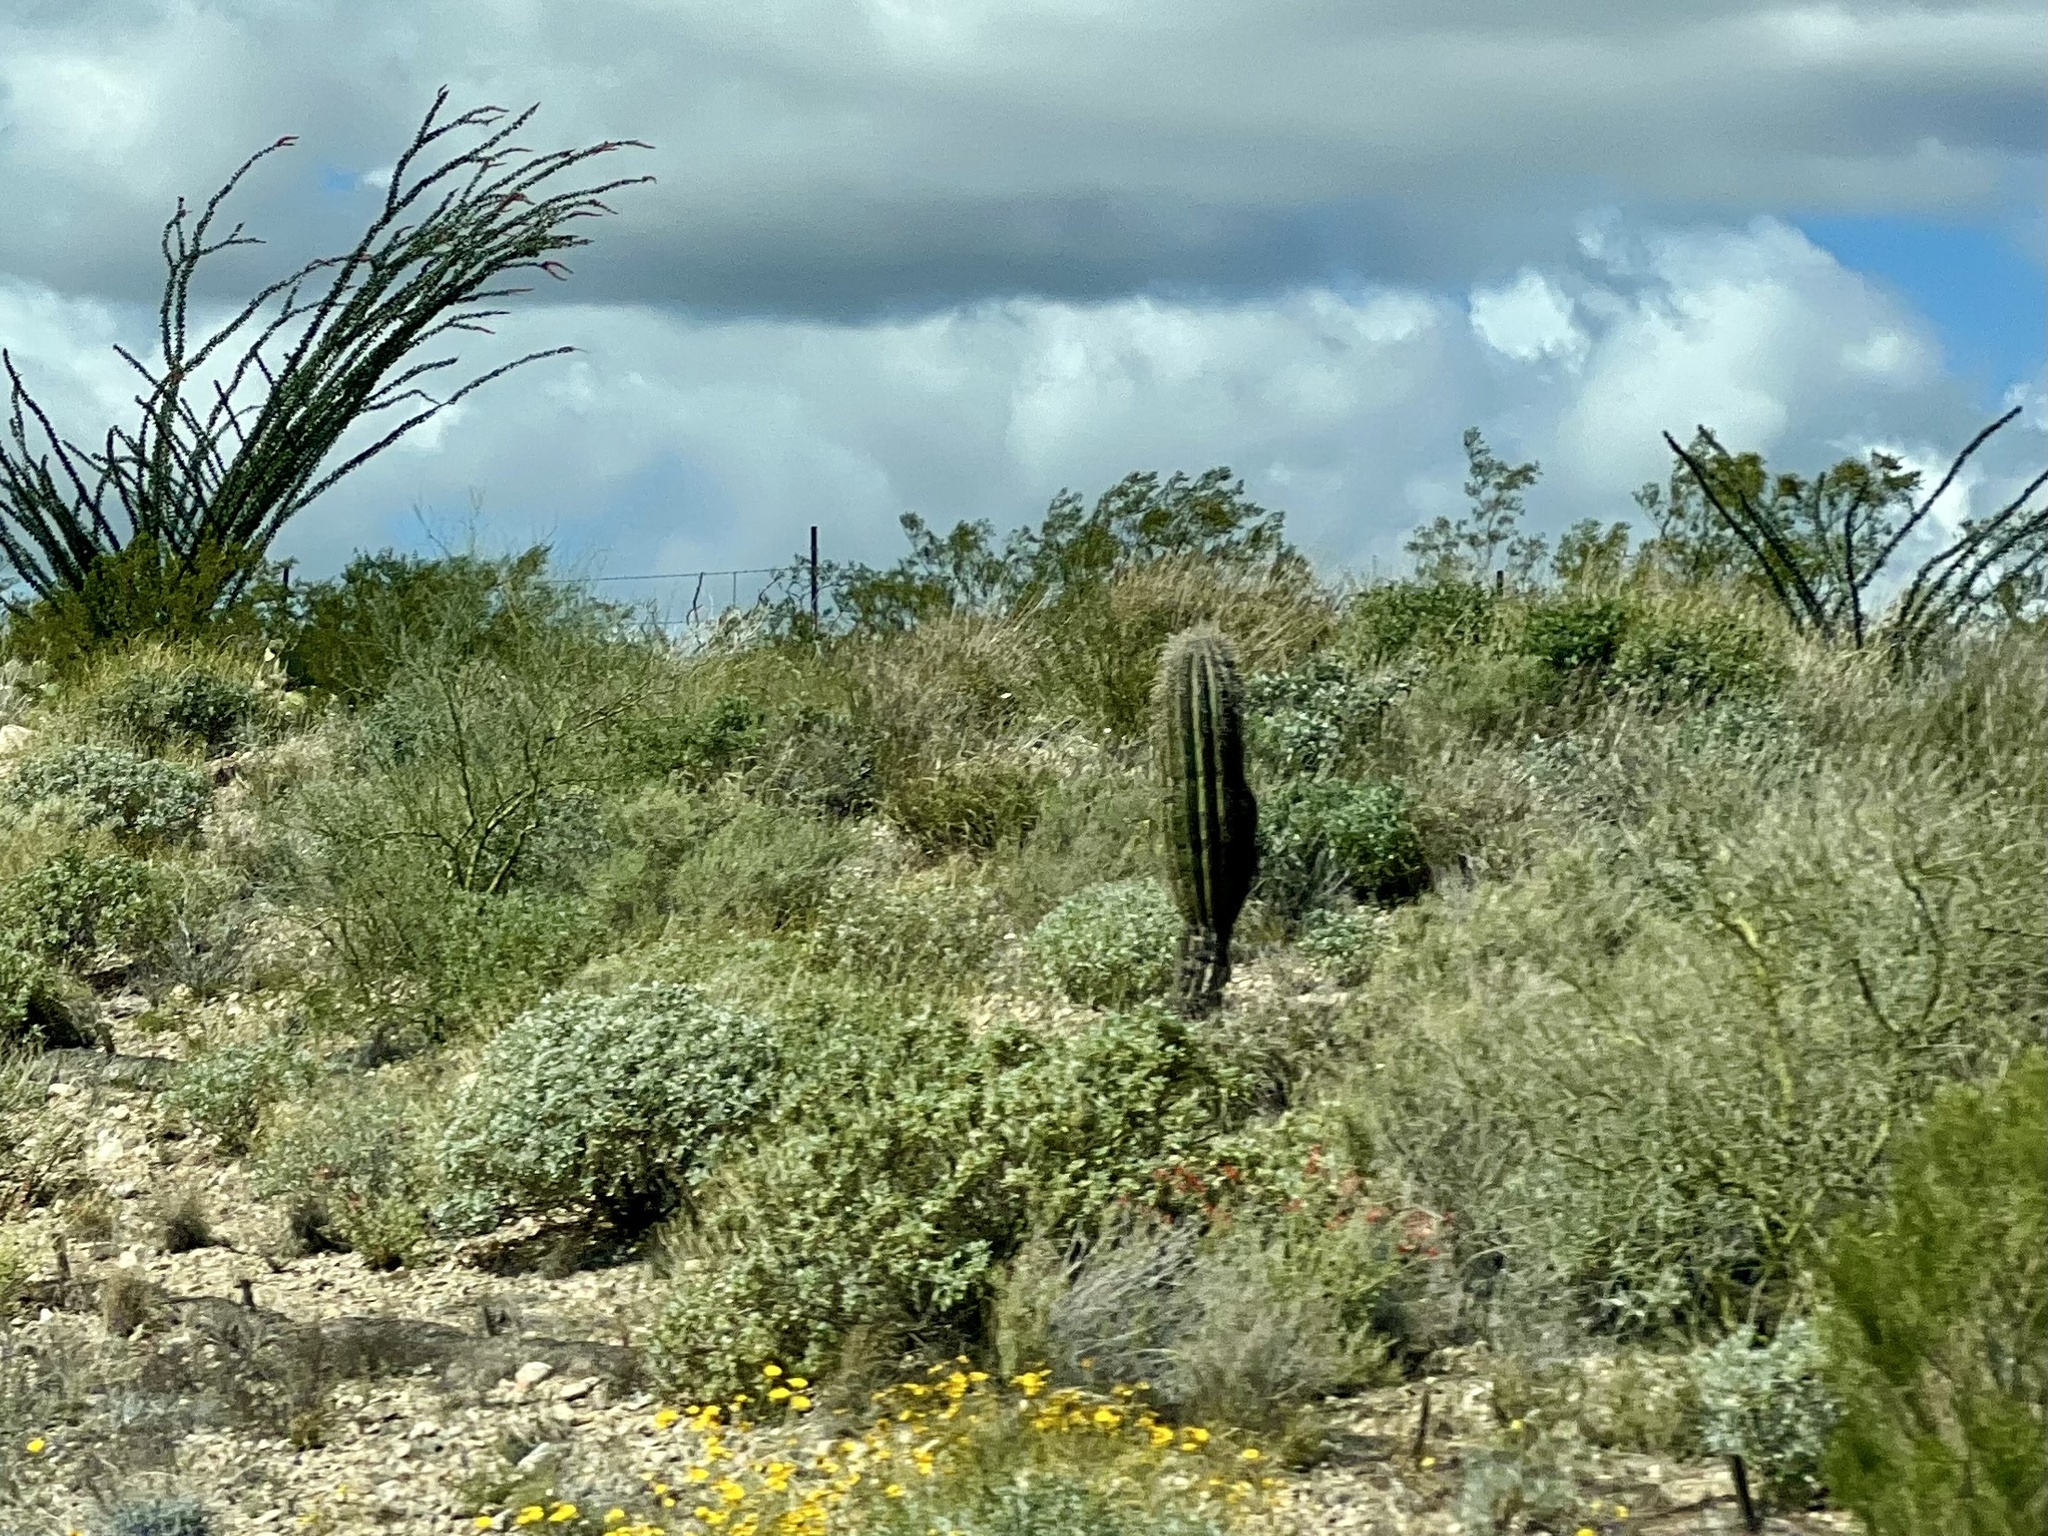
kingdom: Plantae
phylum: Tracheophyta
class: Magnoliopsida
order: Caryophyllales
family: Cactaceae
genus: Carnegiea
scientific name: Carnegiea gigantea
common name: Saguaro
